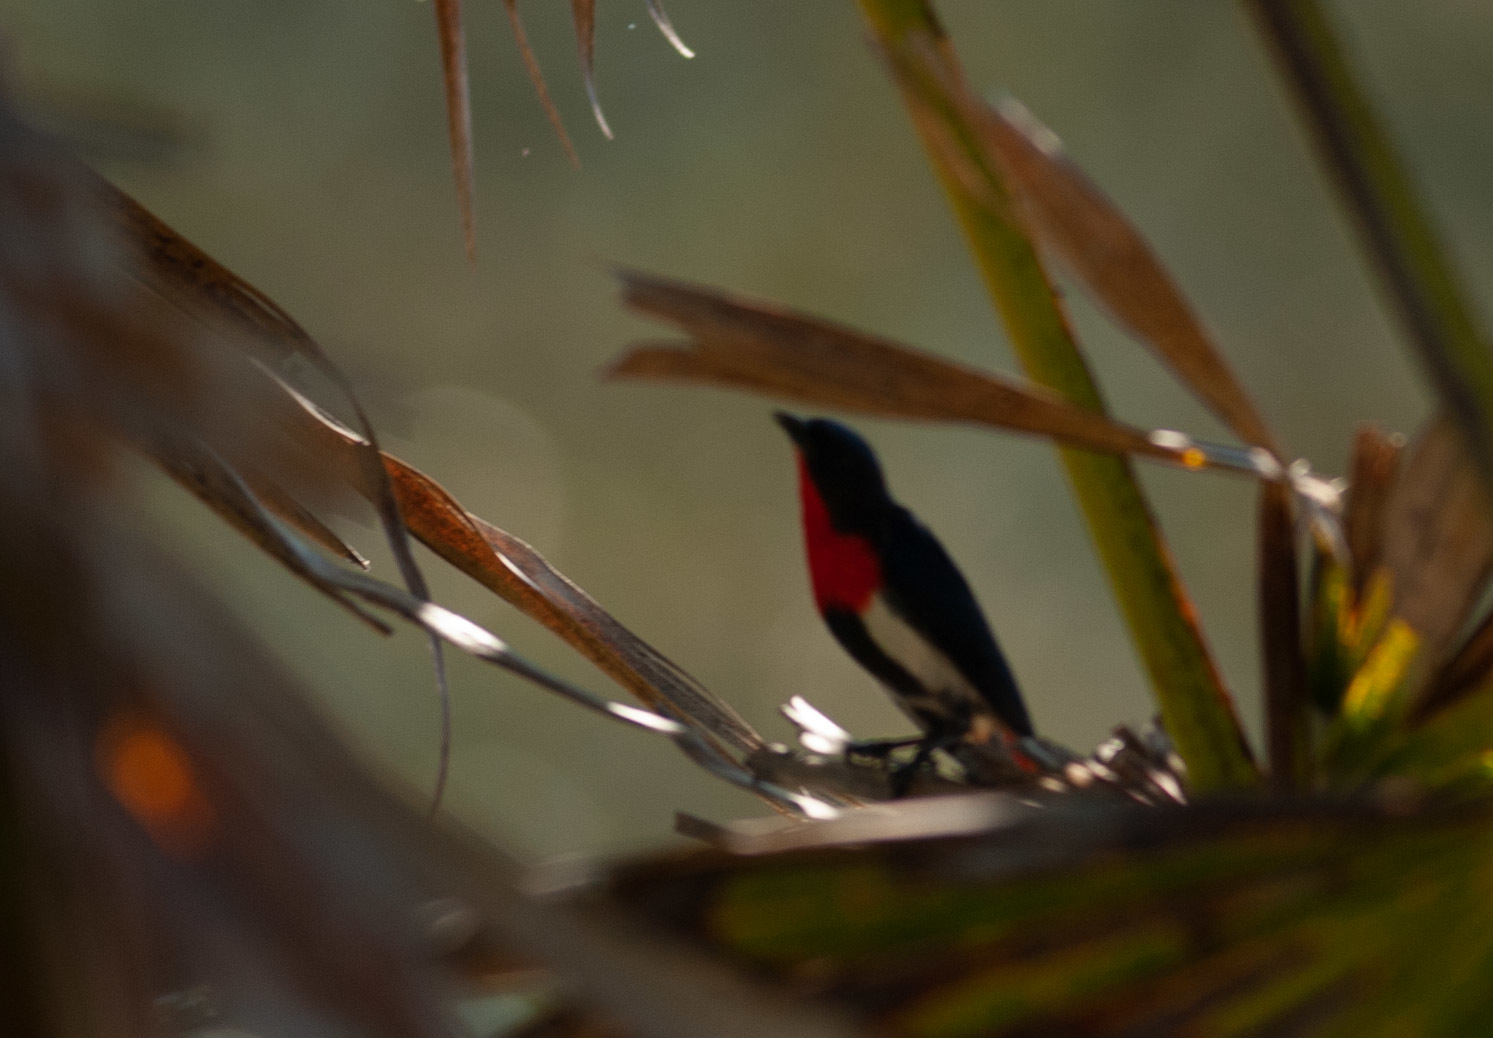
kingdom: Animalia
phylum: Chordata
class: Aves
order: Passeriformes
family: Dicaeidae
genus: Dicaeum
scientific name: Dicaeum hirundinaceum
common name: Mistletoebird
